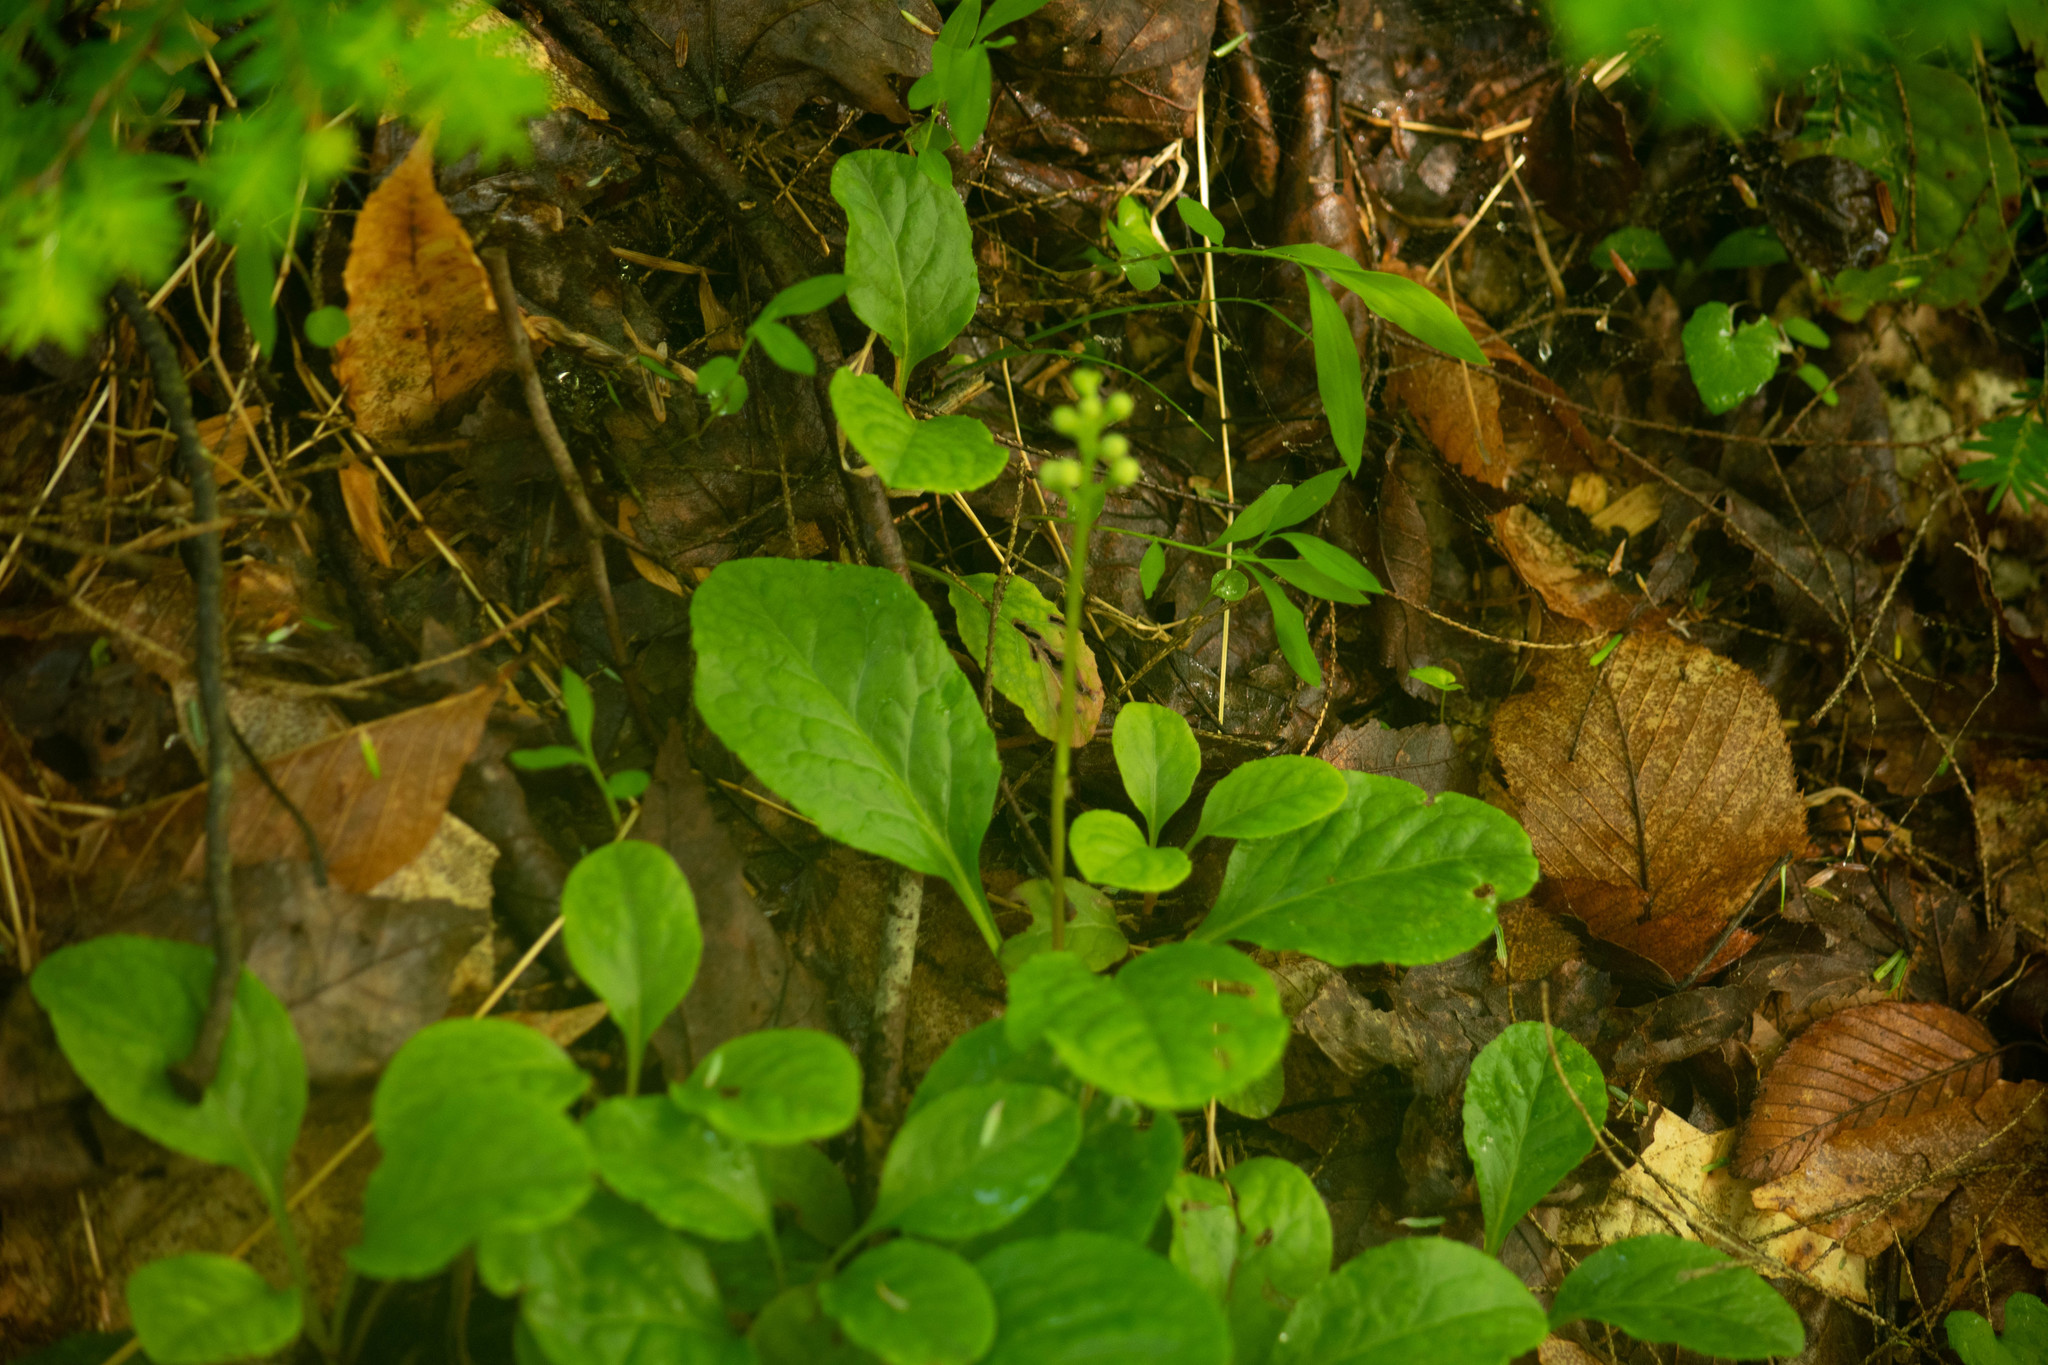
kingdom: Plantae
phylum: Tracheophyta
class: Magnoliopsida
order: Ericales
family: Ericaceae
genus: Pyrola
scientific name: Pyrola elliptica
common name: Shinleaf
